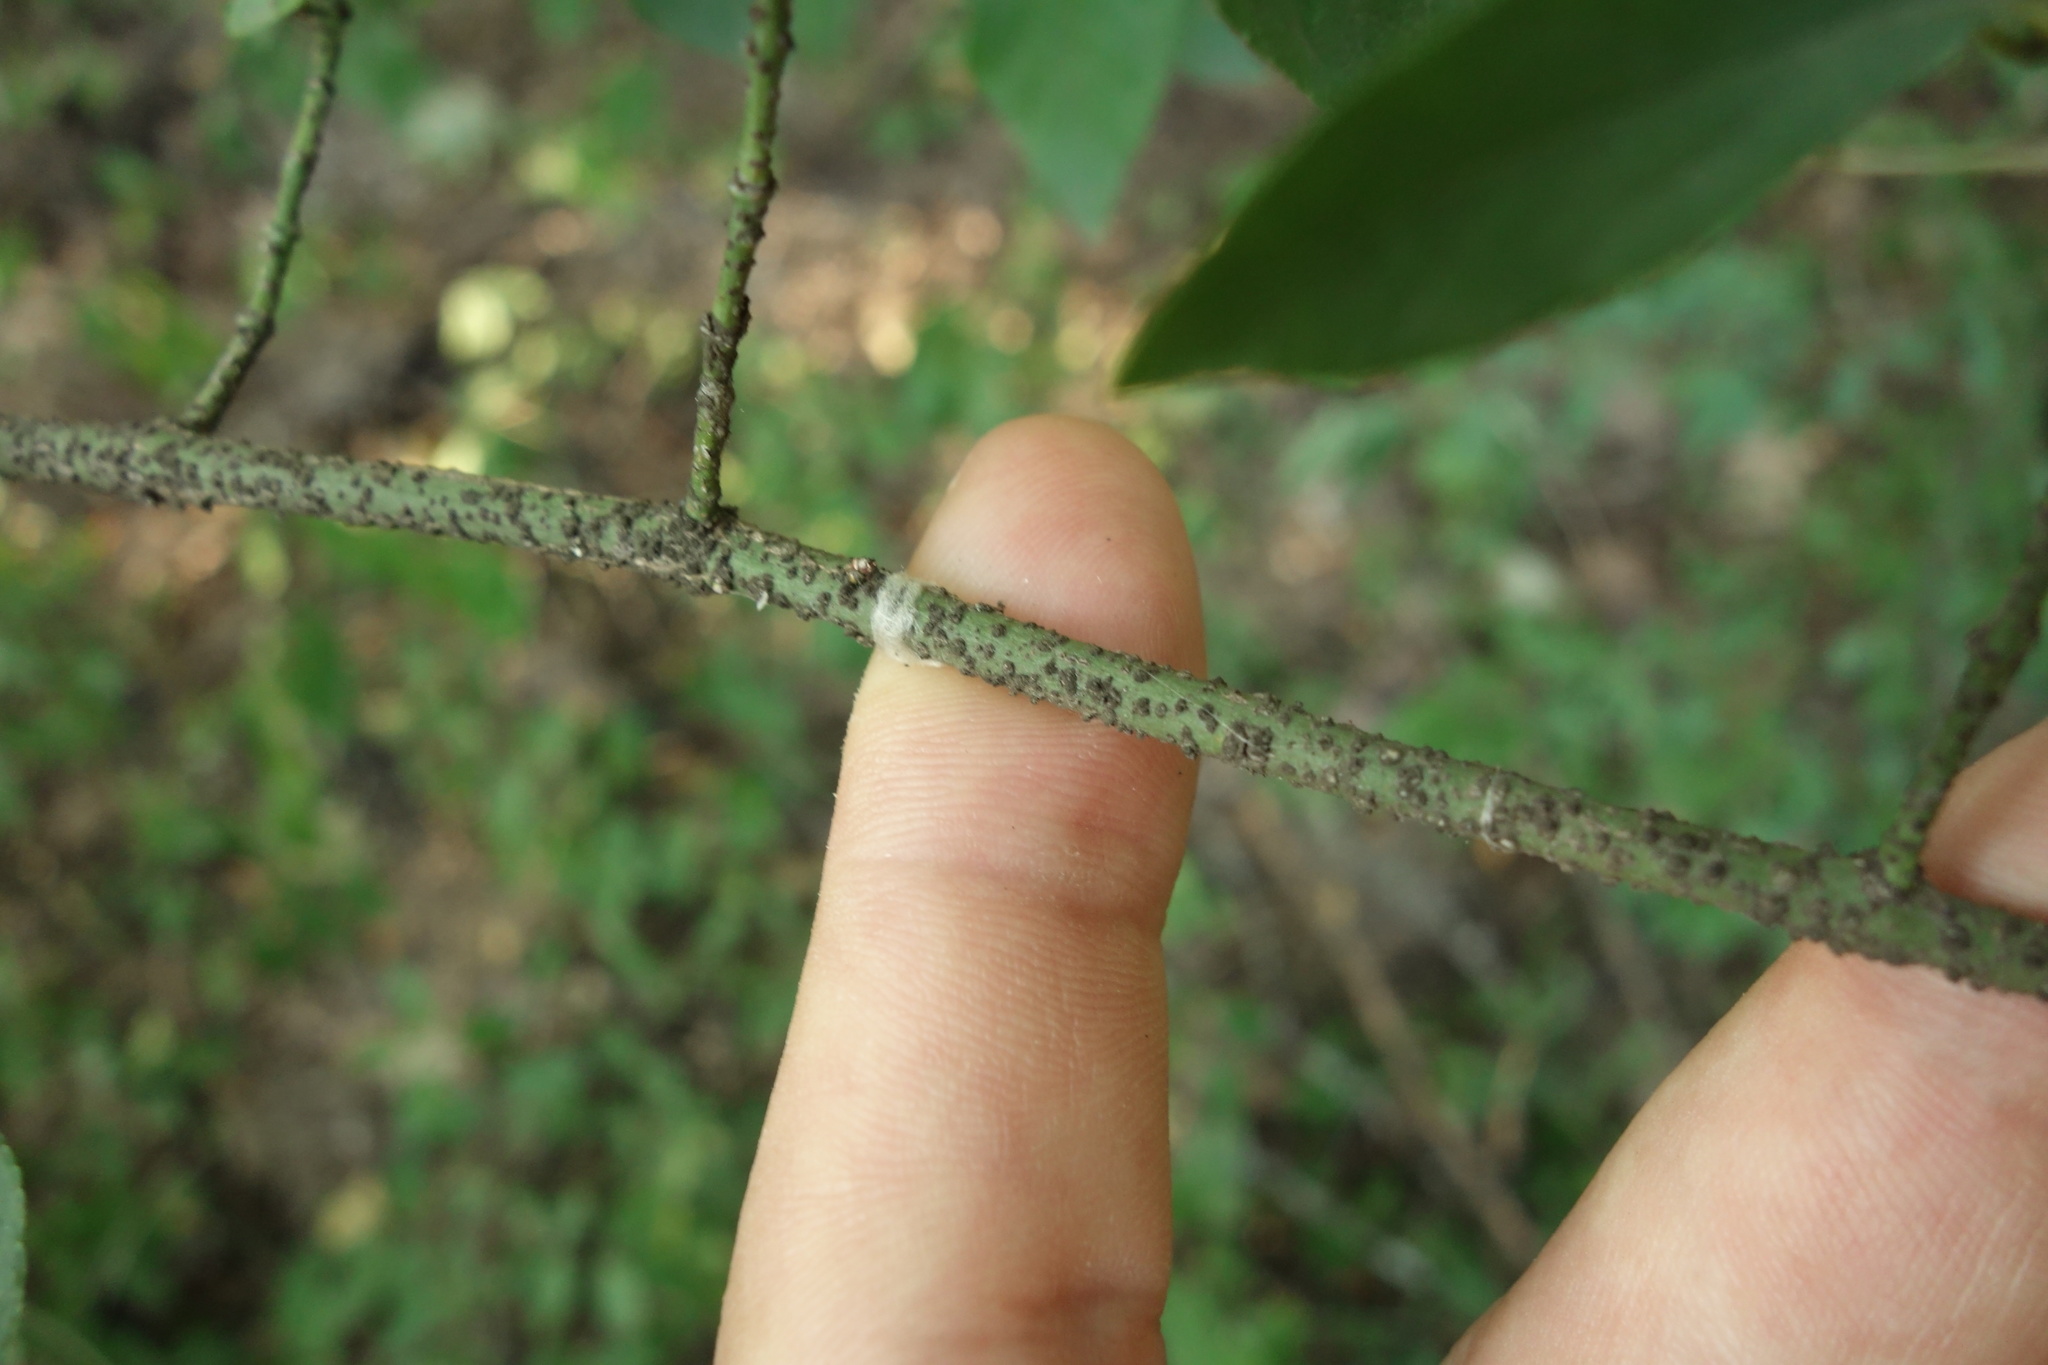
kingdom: Plantae
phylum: Tracheophyta
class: Magnoliopsida
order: Celastrales
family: Celastraceae
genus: Euonymus
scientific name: Euonymus verrucosus
